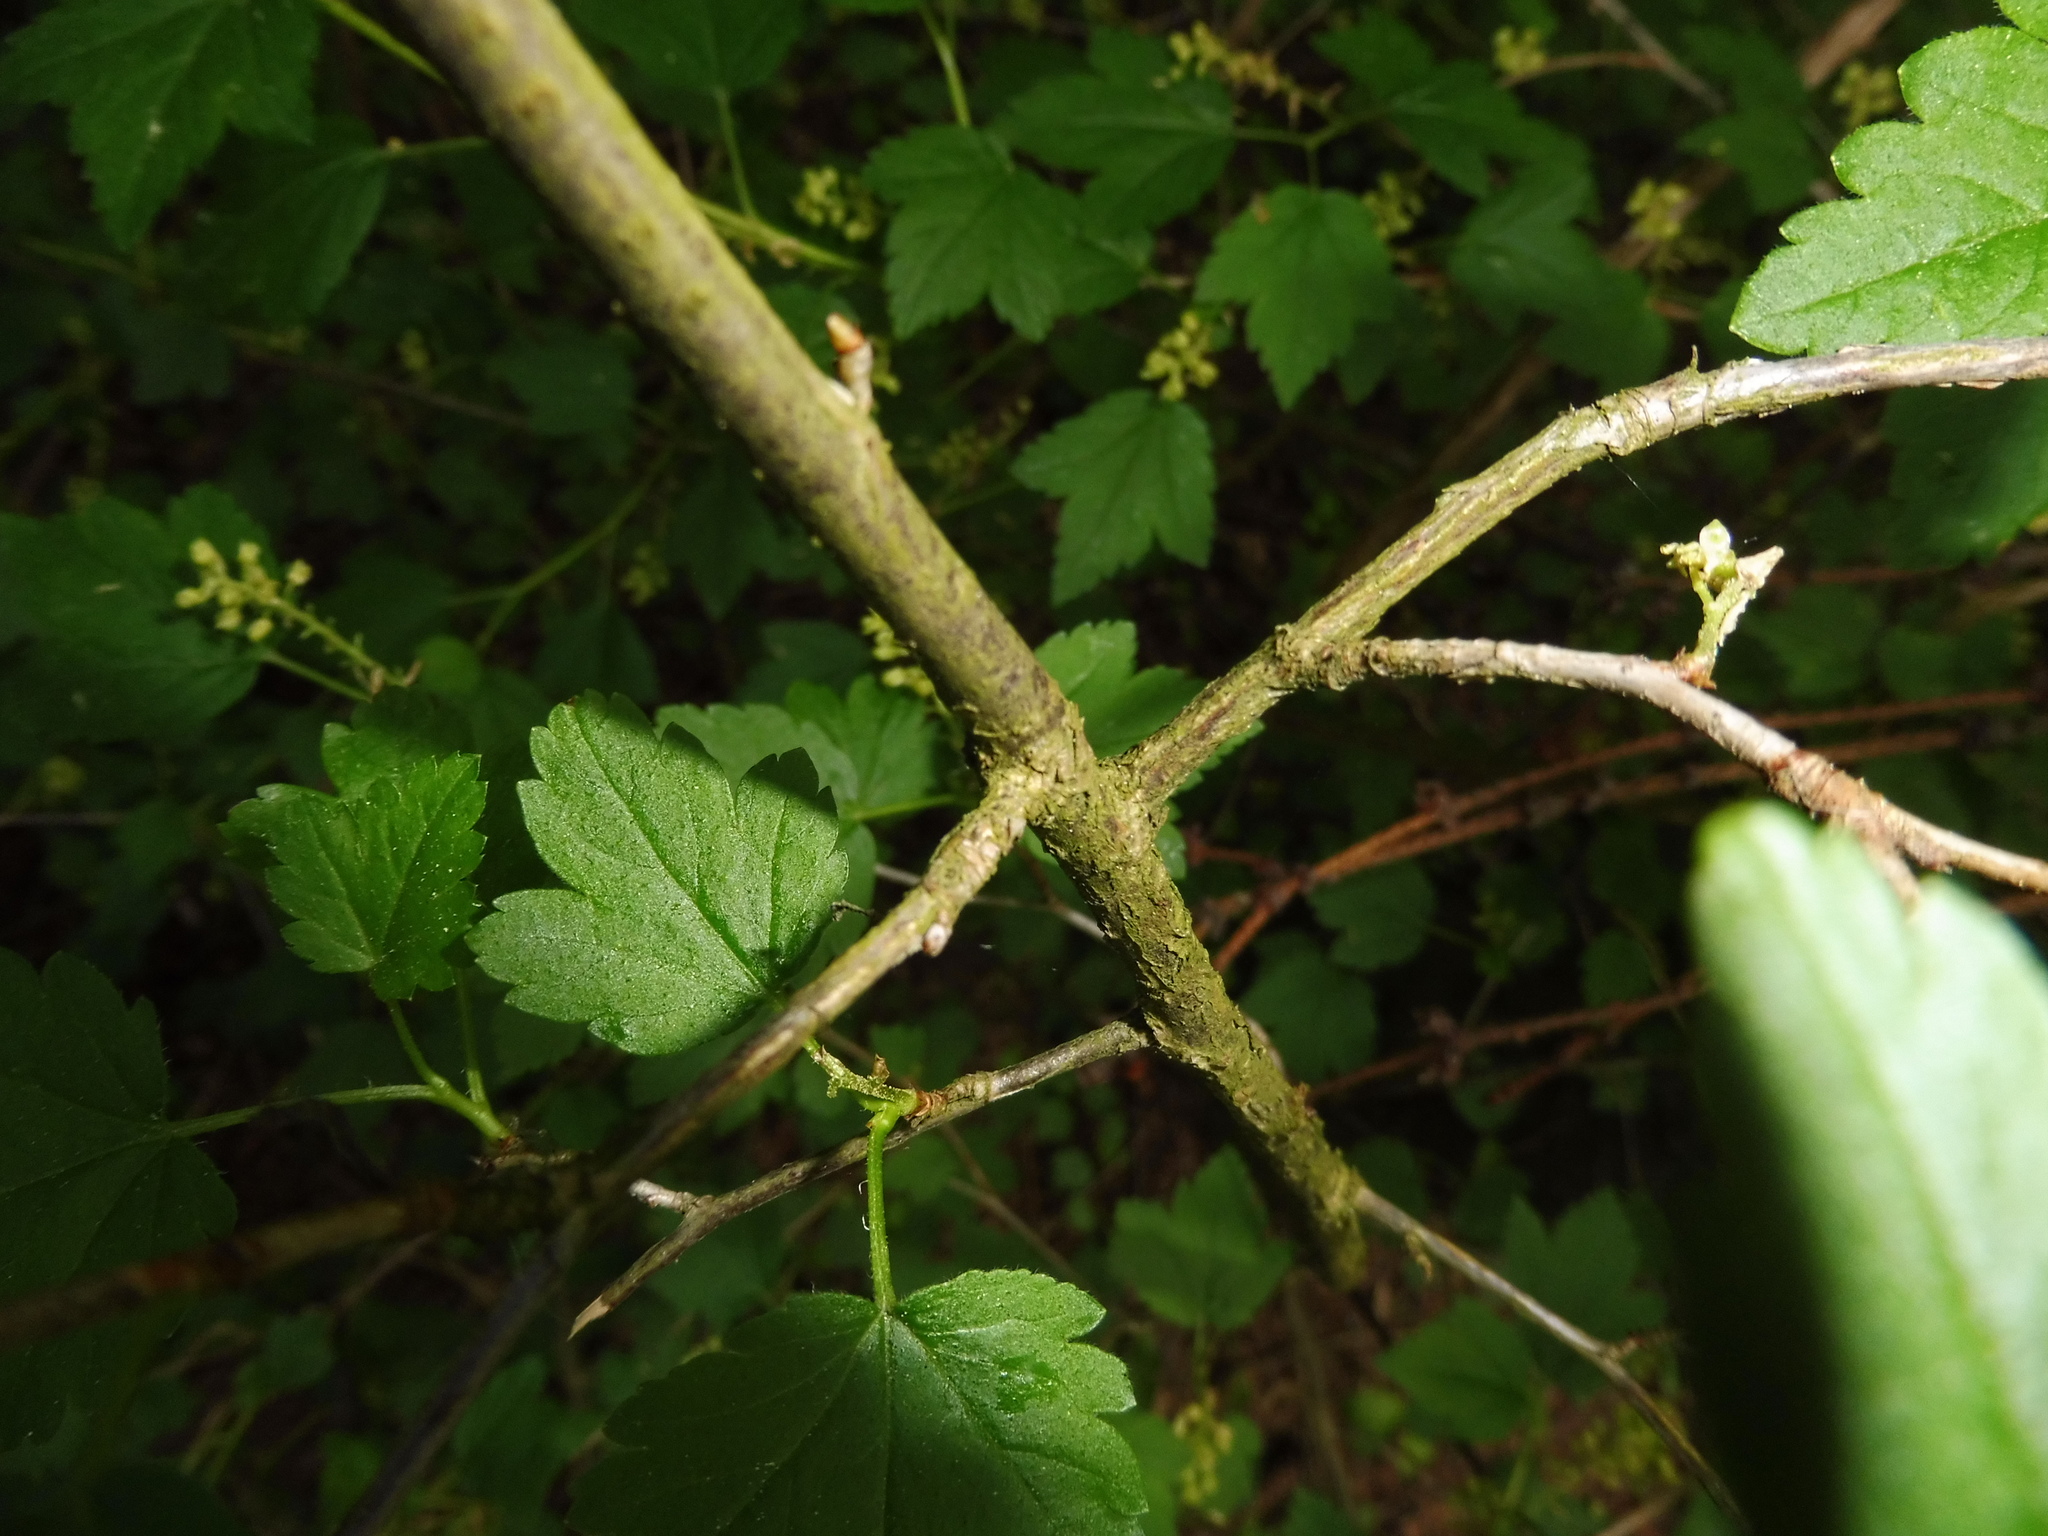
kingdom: Plantae
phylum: Tracheophyta
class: Magnoliopsida
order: Saxifragales
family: Grossulariaceae
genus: Ribes
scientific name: Ribes alpinum
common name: Alpine currant
